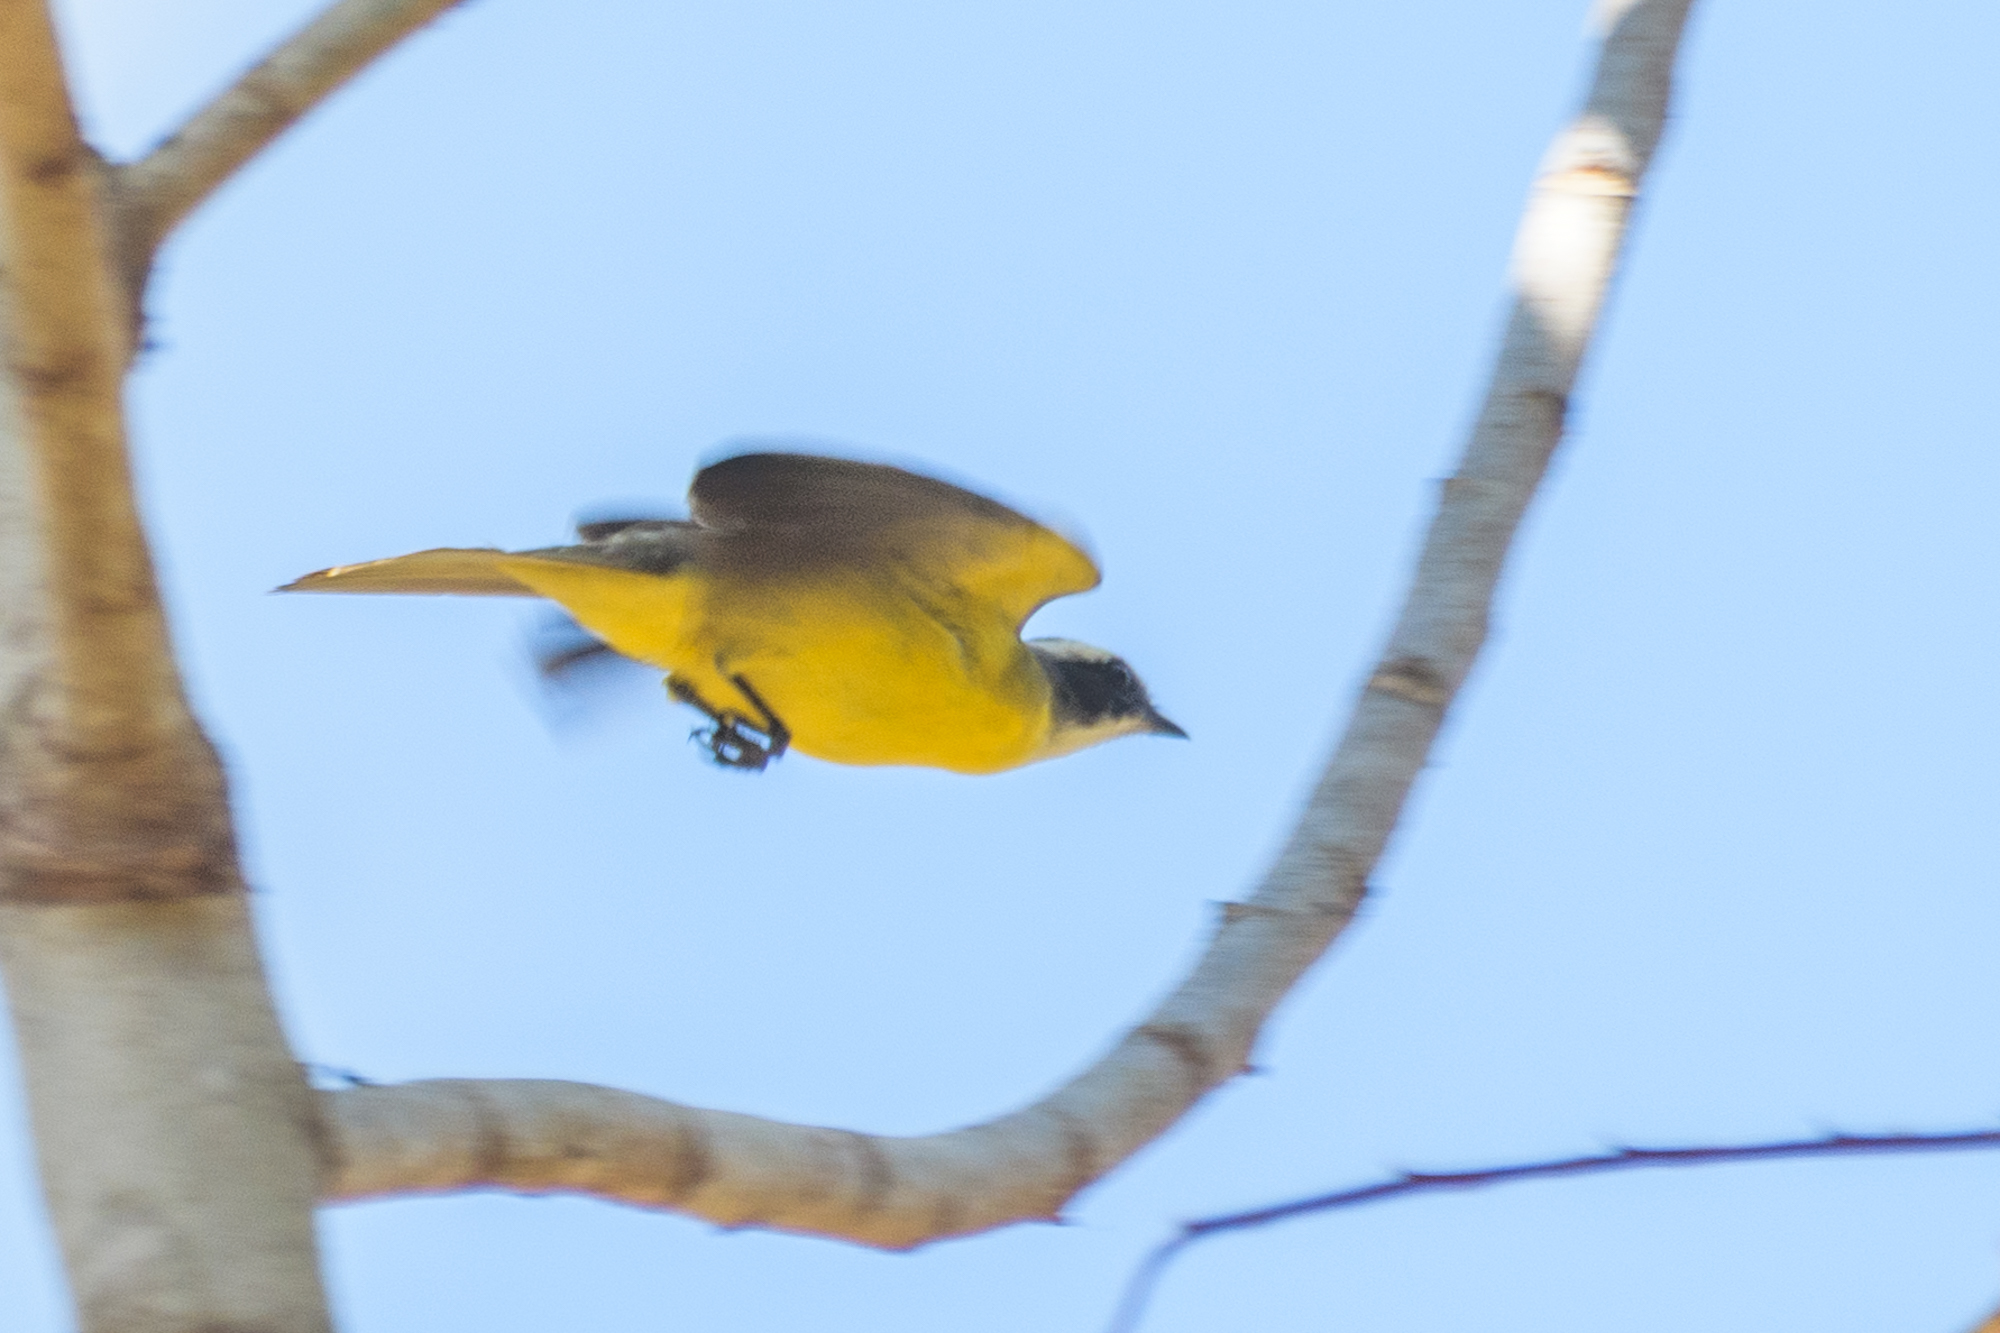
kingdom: Animalia
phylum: Chordata
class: Aves
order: Passeriformes
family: Tyrannidae
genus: Myiozetetes
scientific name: Myiozetetes similis
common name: Social flycatcher
